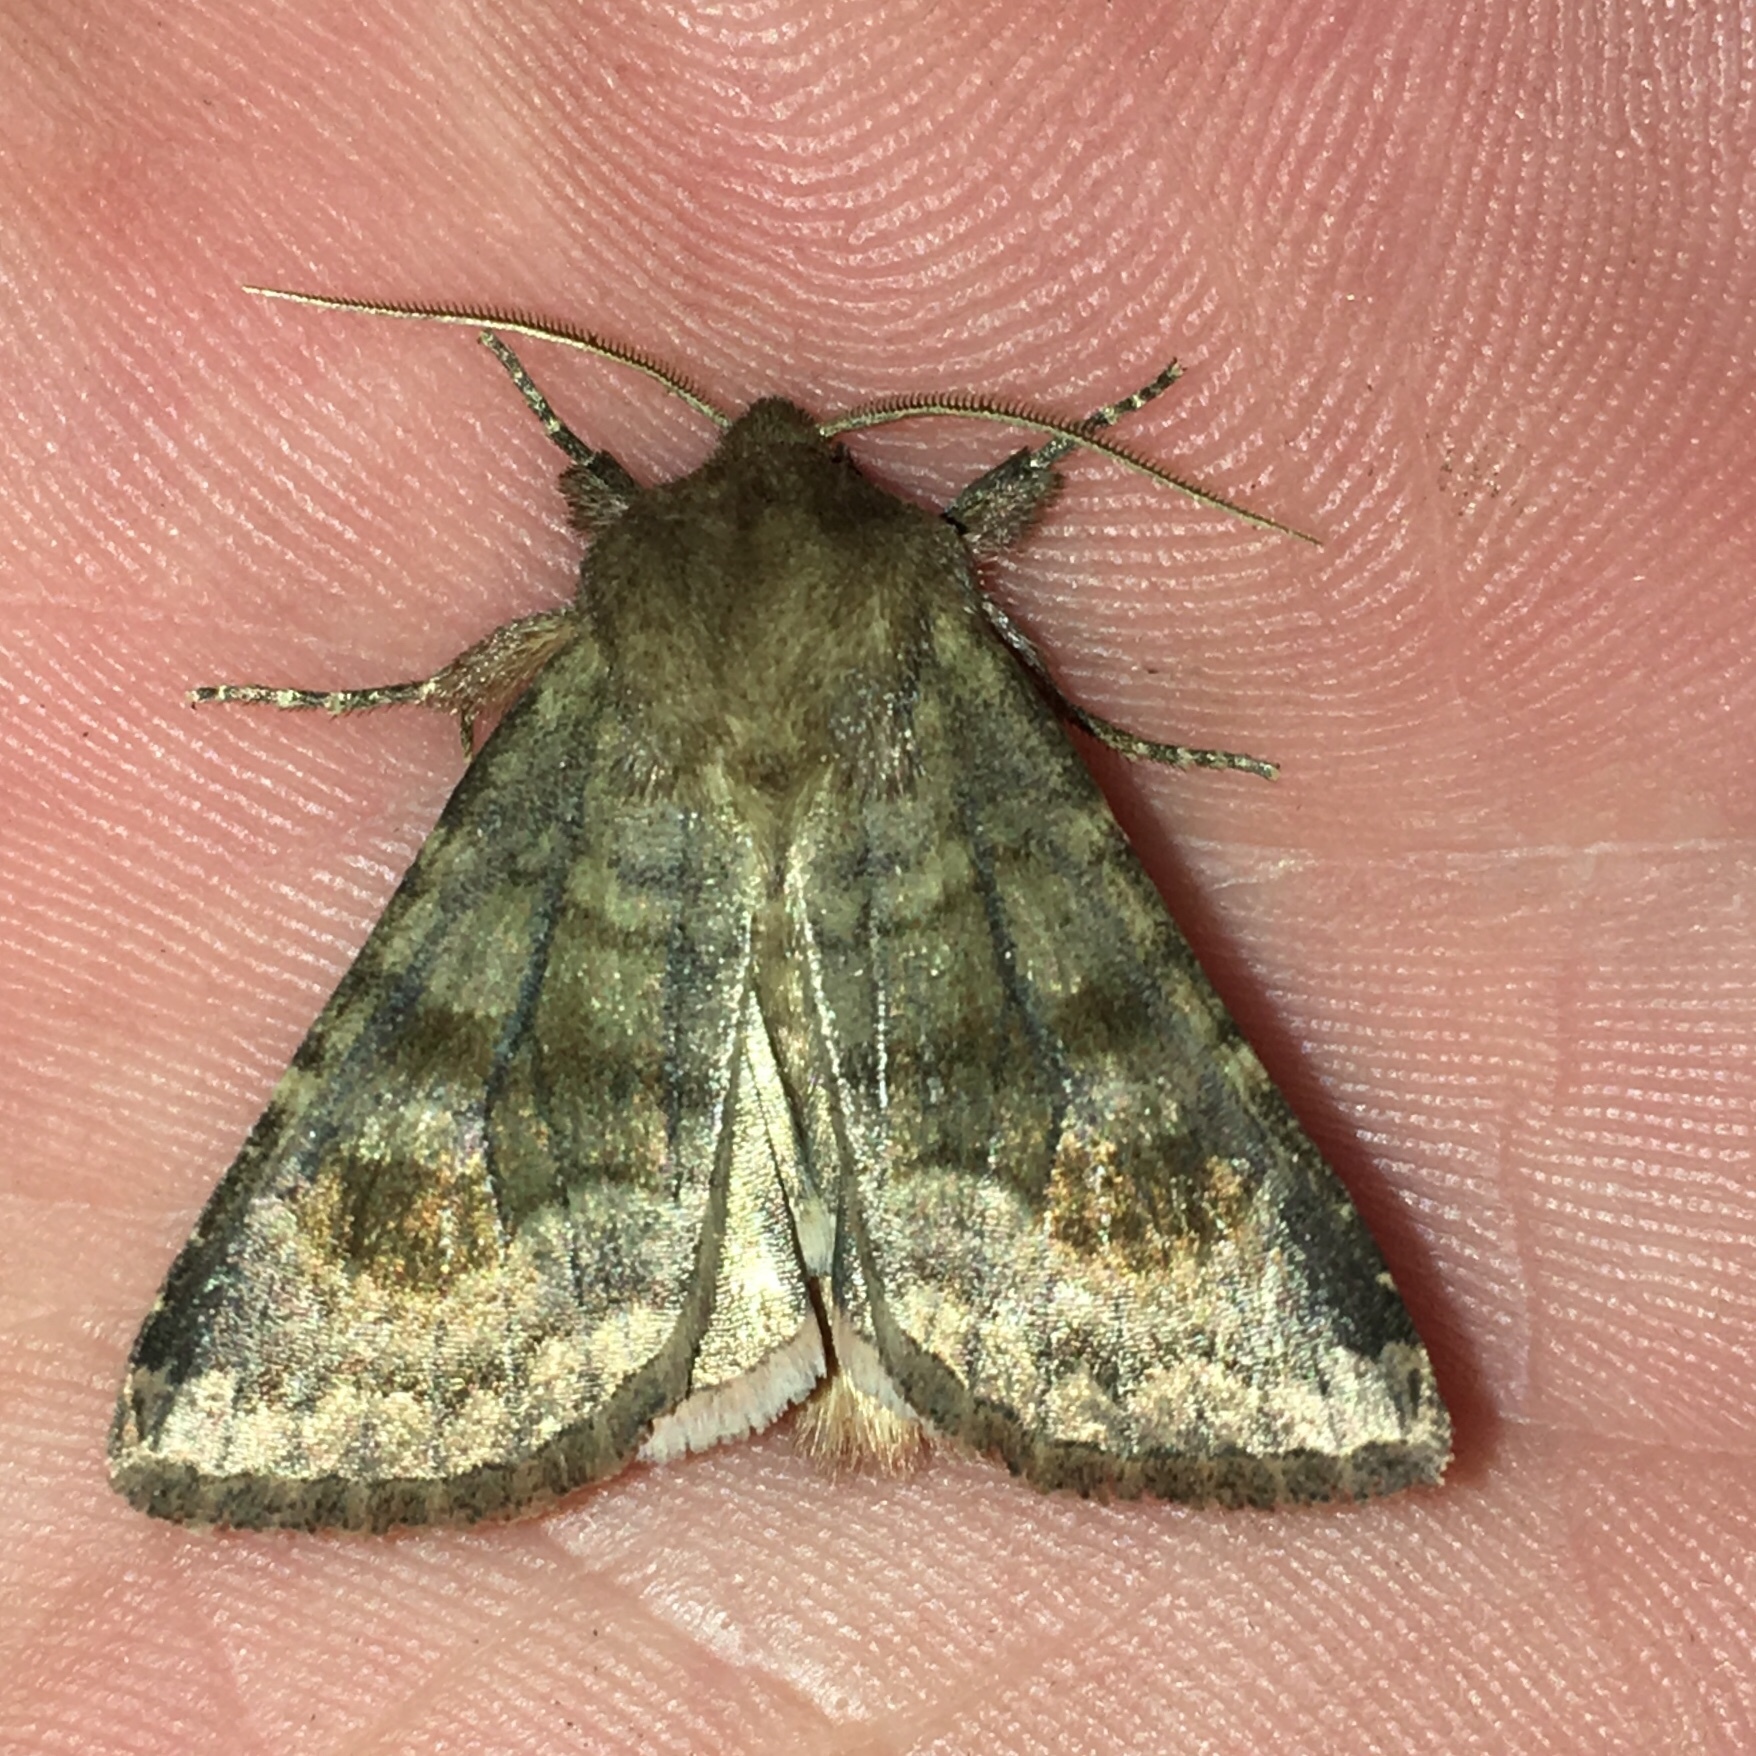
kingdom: Animalia
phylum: Arthropoda
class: Insecta
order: Lepidoptera
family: Noctuidae
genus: Nephelodes
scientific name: Nephelodes minians
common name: Bronzed cutworm
